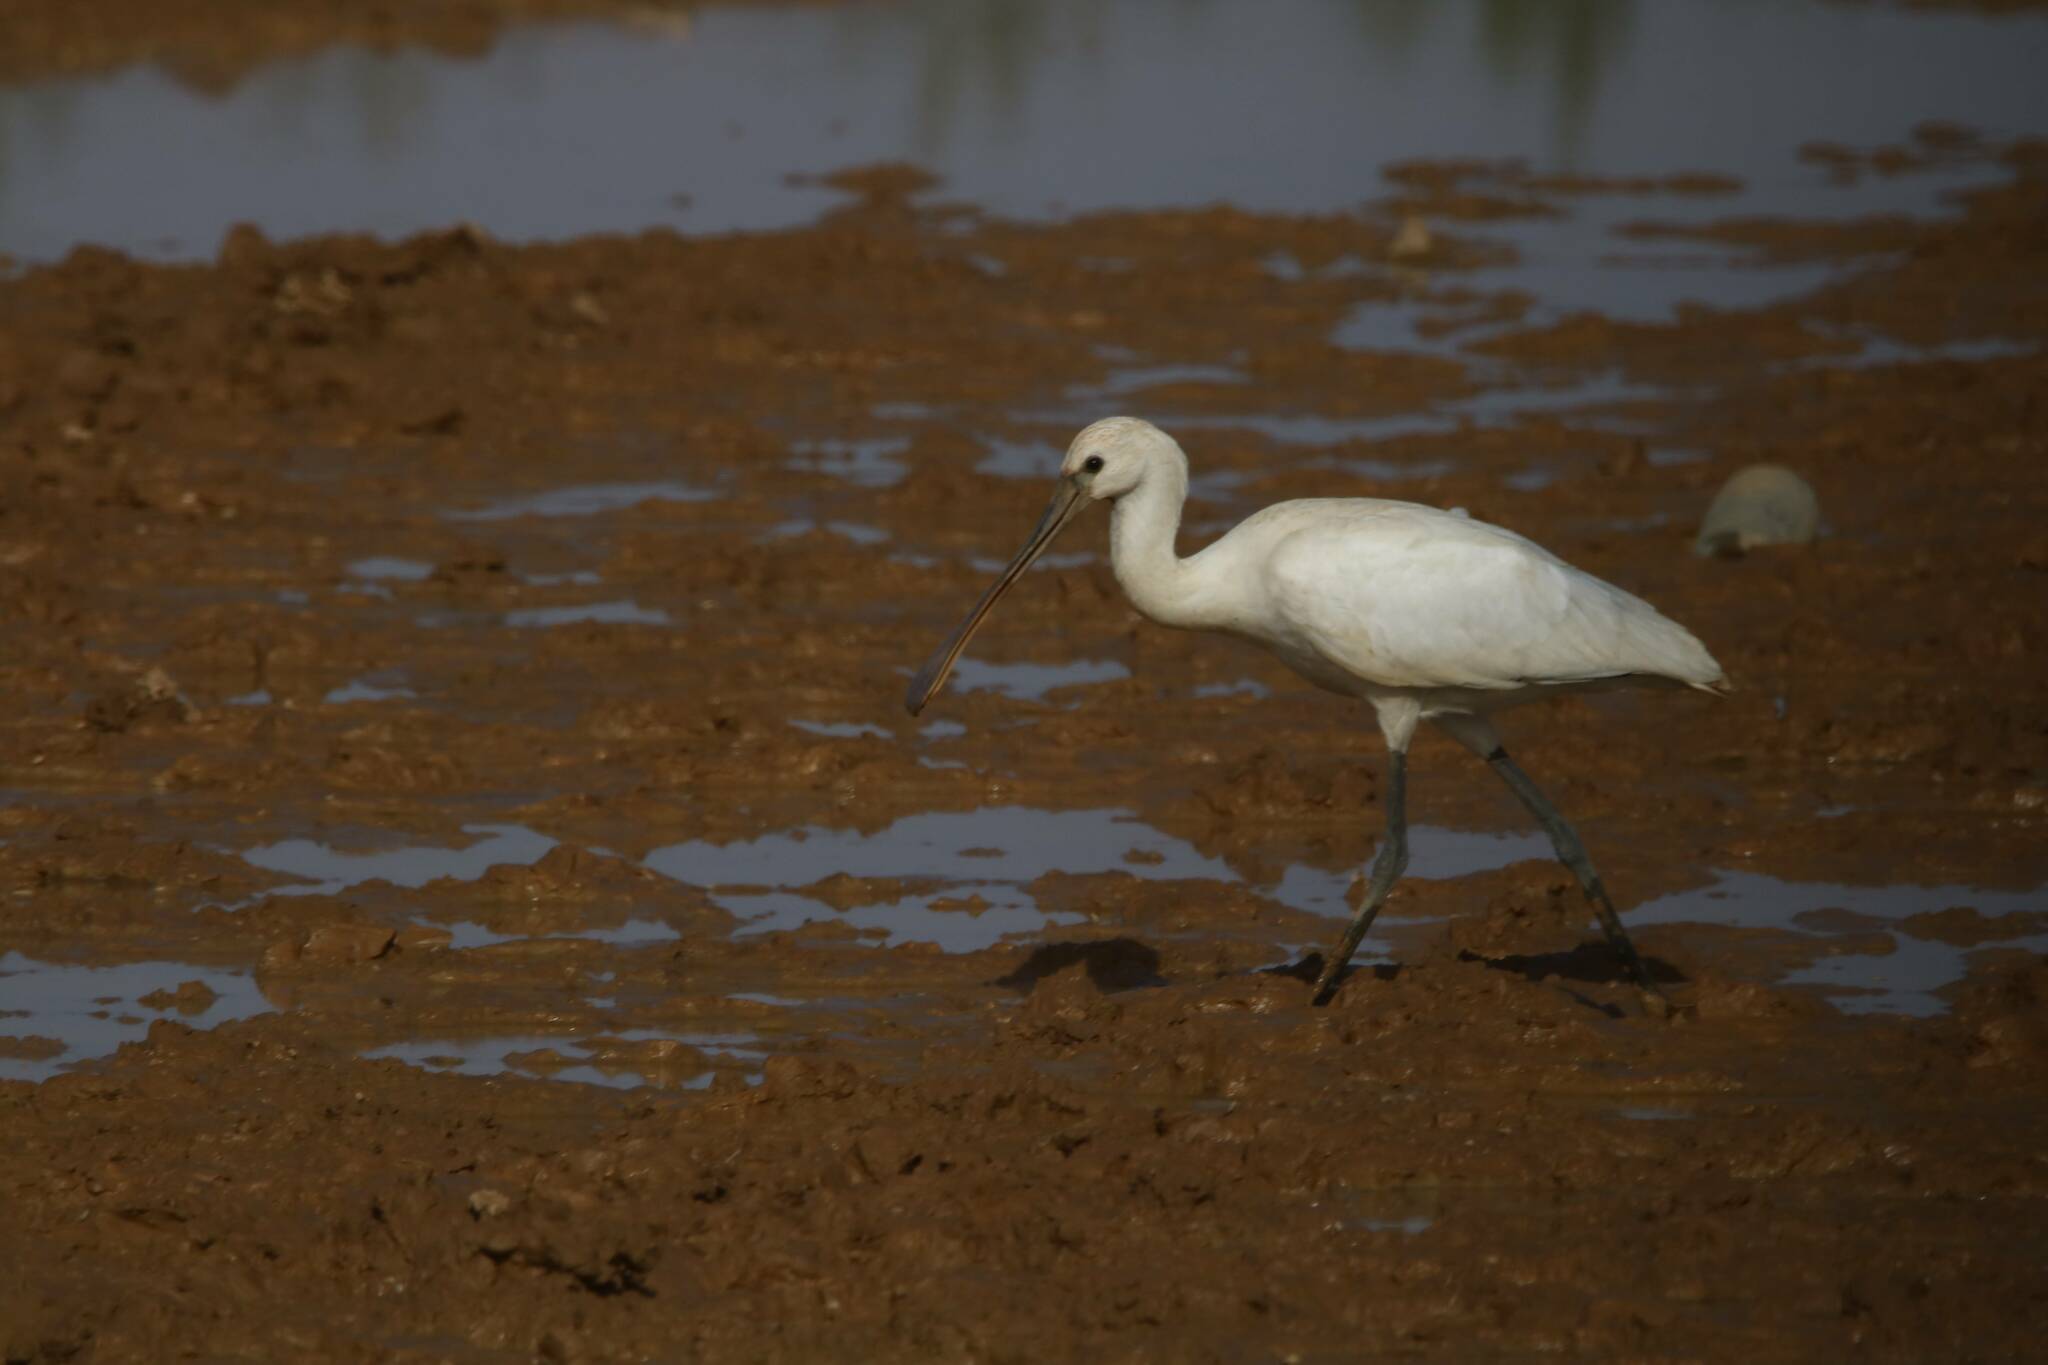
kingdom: Animalia
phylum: Chordata
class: Aves
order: Pelecaniformes
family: Threskiornithidae
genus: Platalea
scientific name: Platalea leucorodia
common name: Eurasian spoonbill
